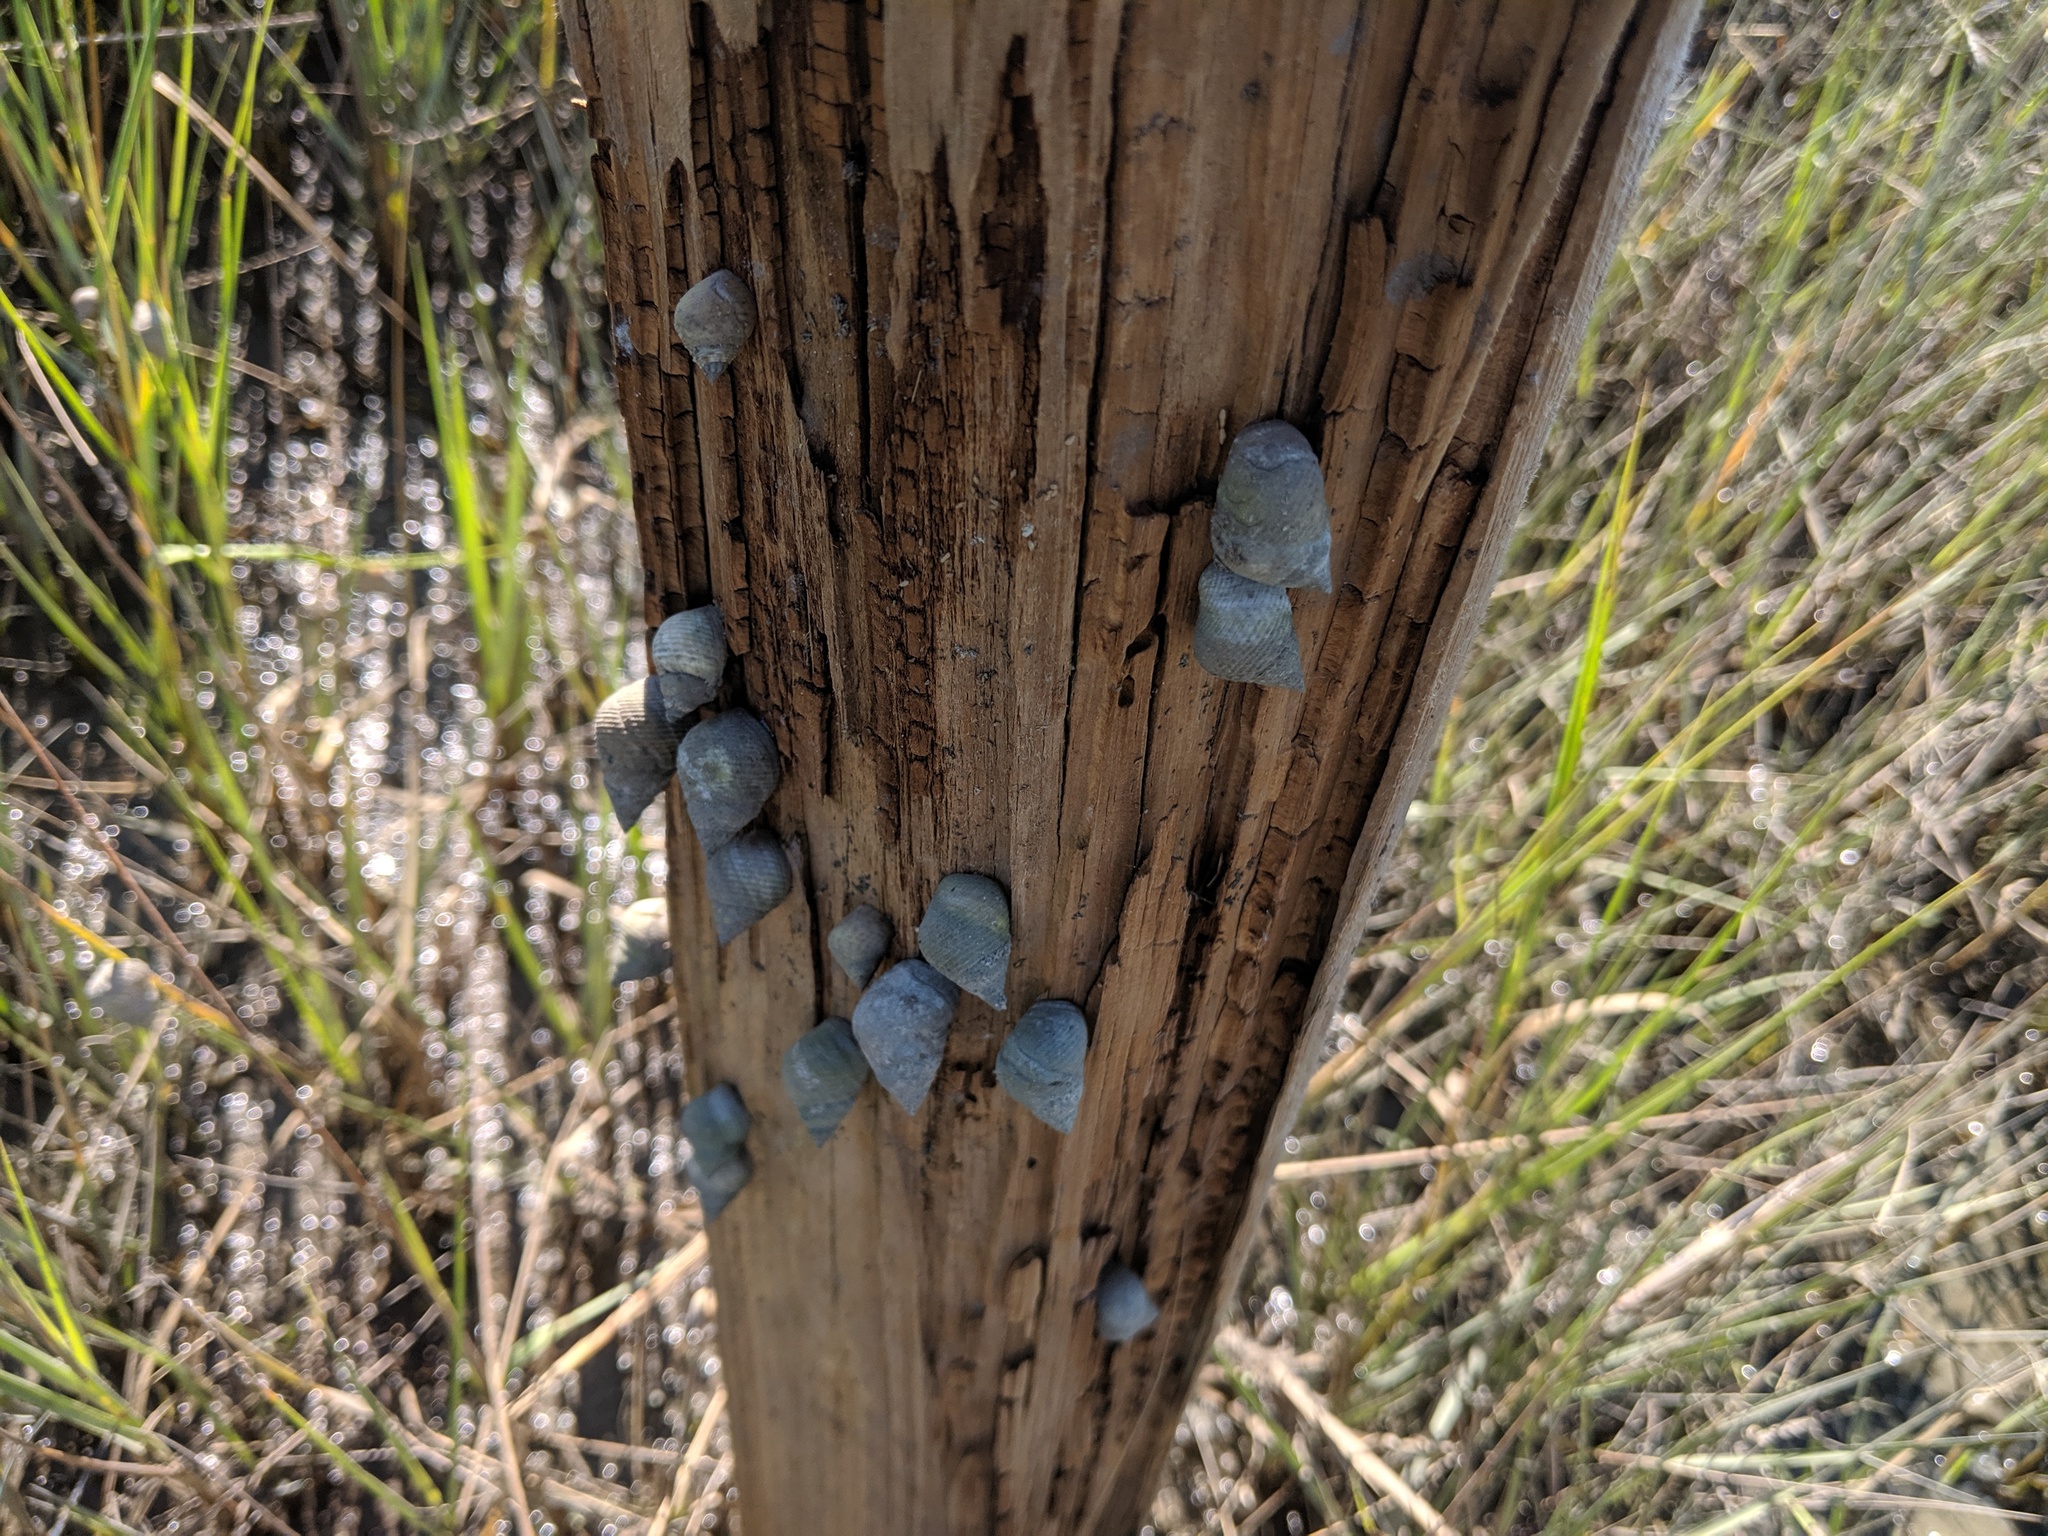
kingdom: Animalia
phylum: Mollusca
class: Gastropoda
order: Littorinimorpha
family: Littorinidae
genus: Littoraria
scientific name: Littoraria irrorata
